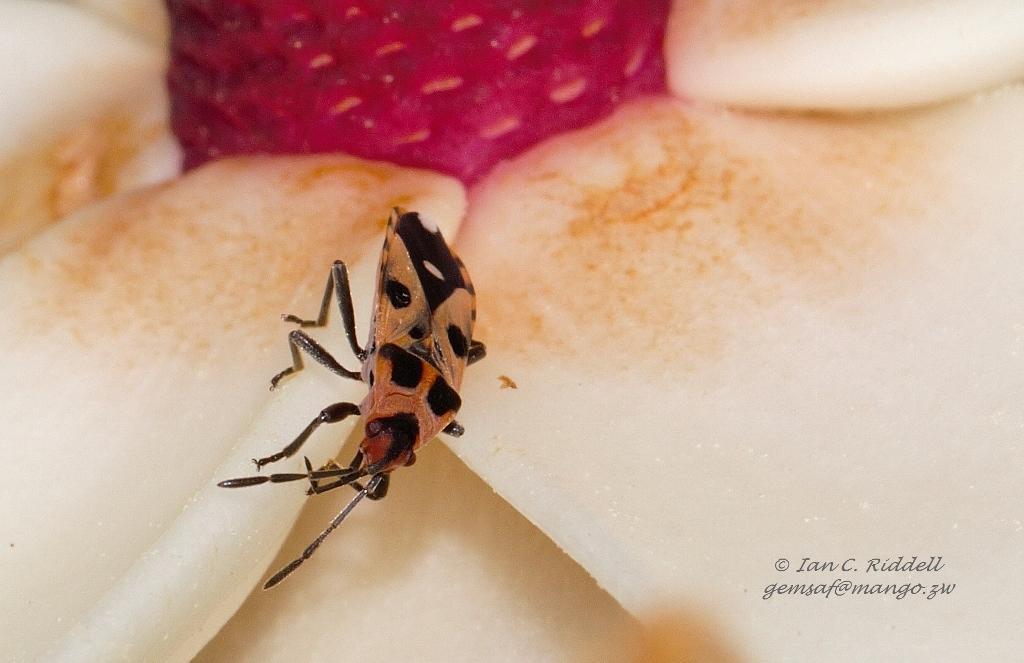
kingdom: Animalia
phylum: Arthropoda
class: Insecta
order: Hemiptera
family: Lygaeidae
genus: Horvathiolus
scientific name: Horvathiolus delicatulus
